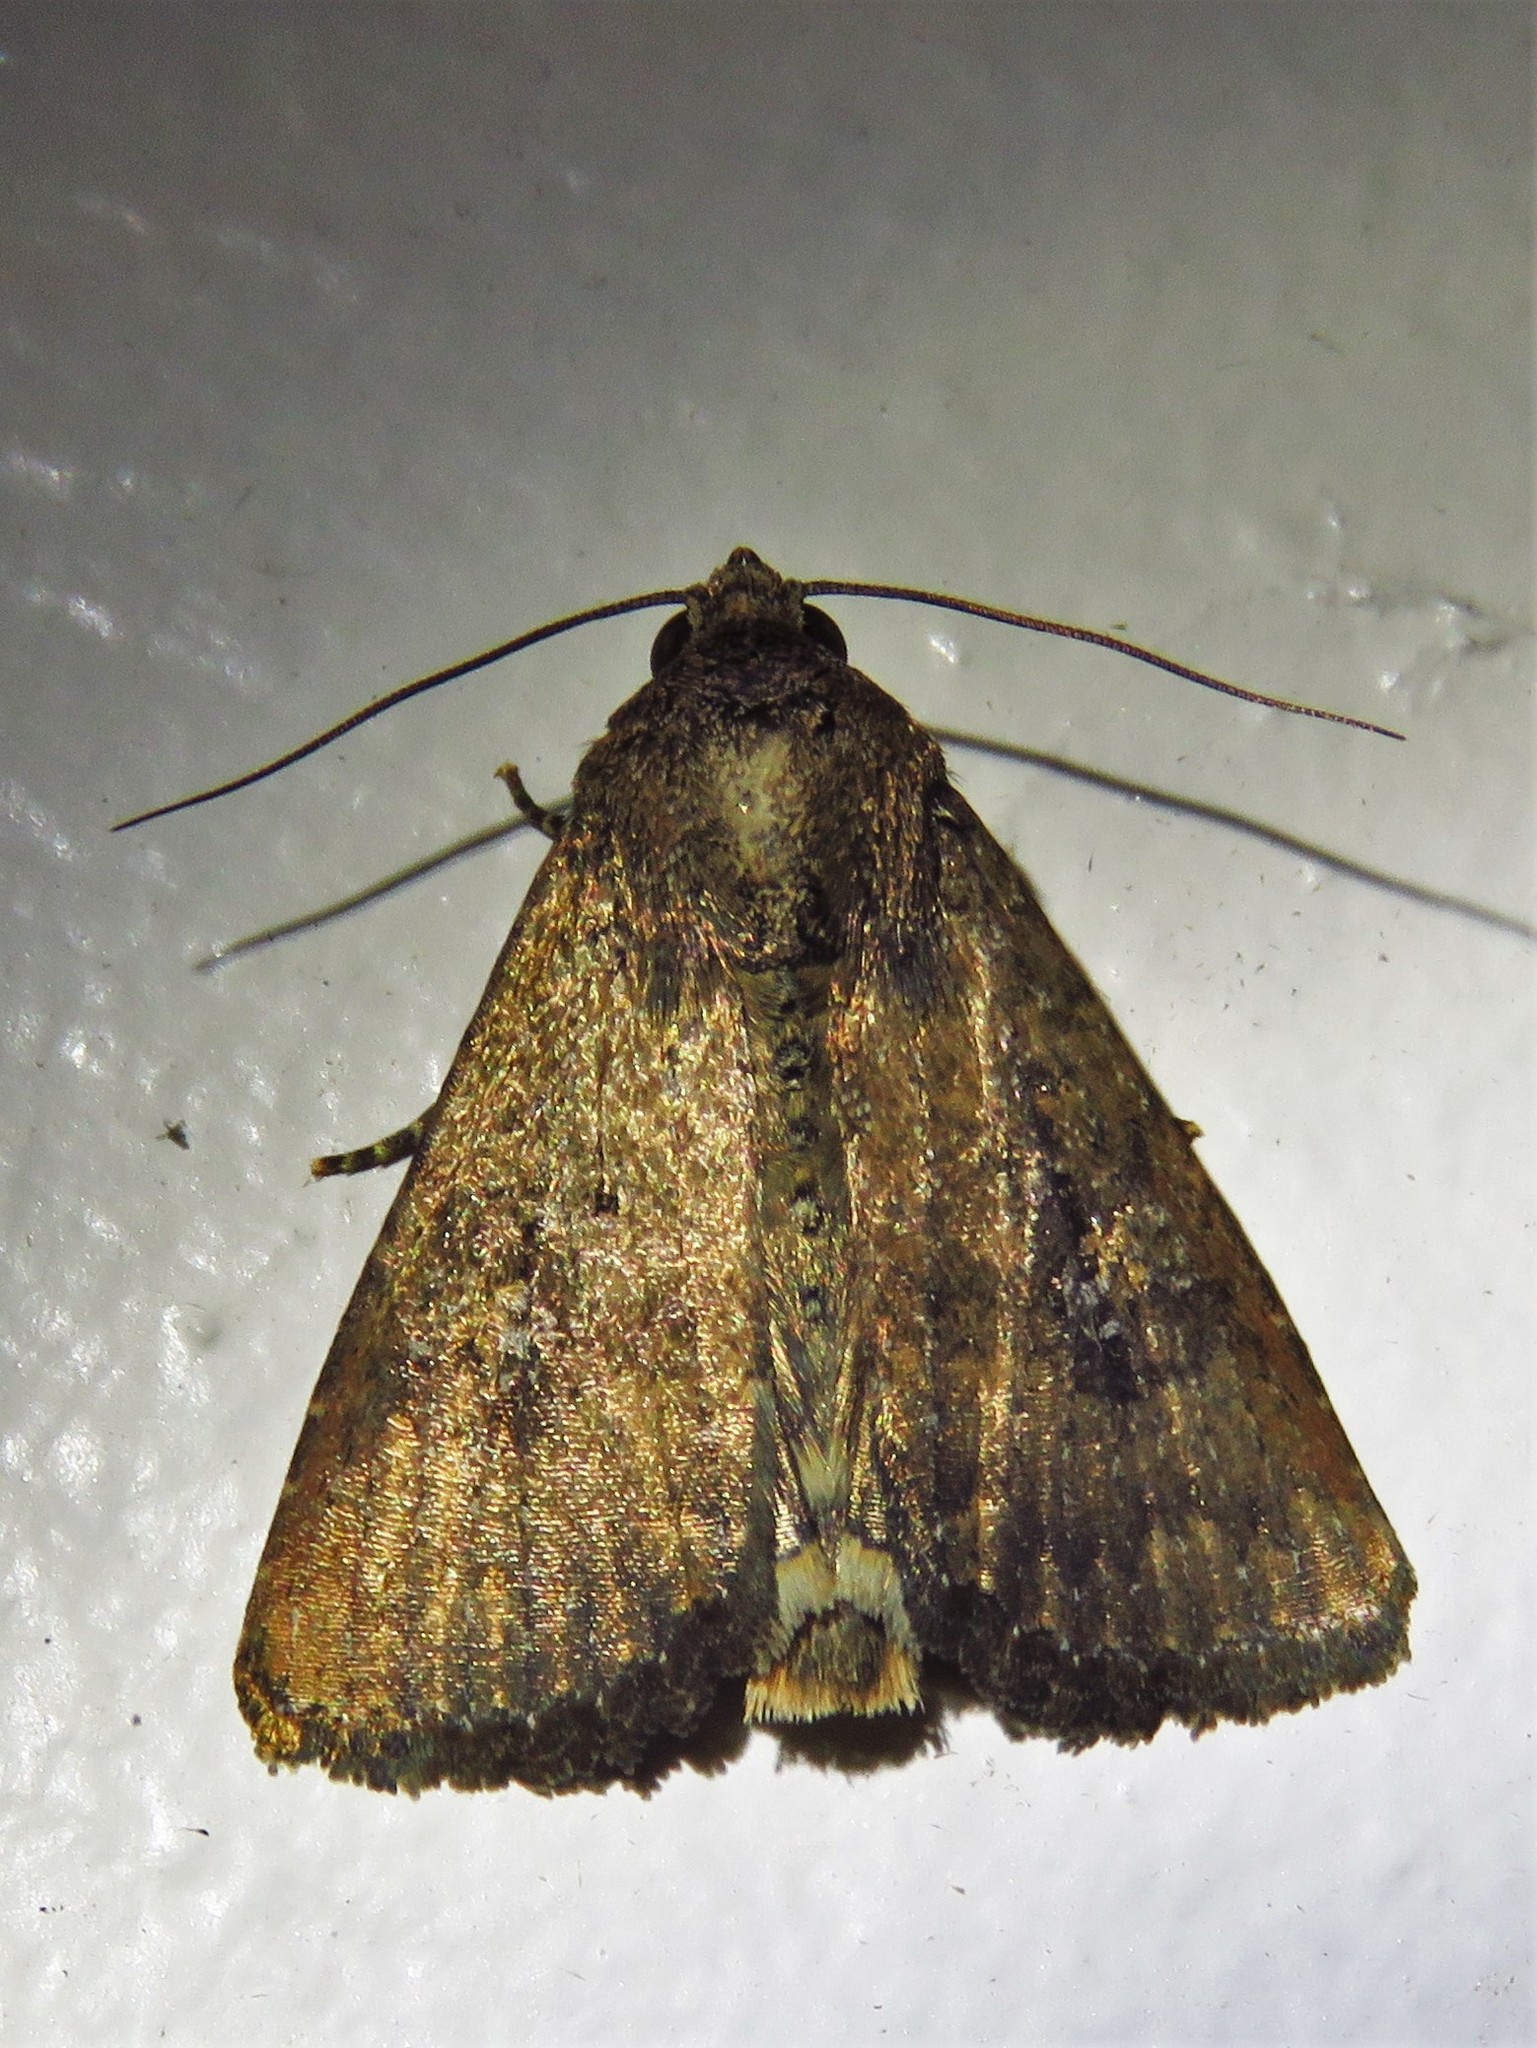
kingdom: Animalia
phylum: Arthropoda
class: Insecta
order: Lepidoptera
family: Noctuidae
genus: Condica
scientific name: Condica sutor
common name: Cobbler moth
